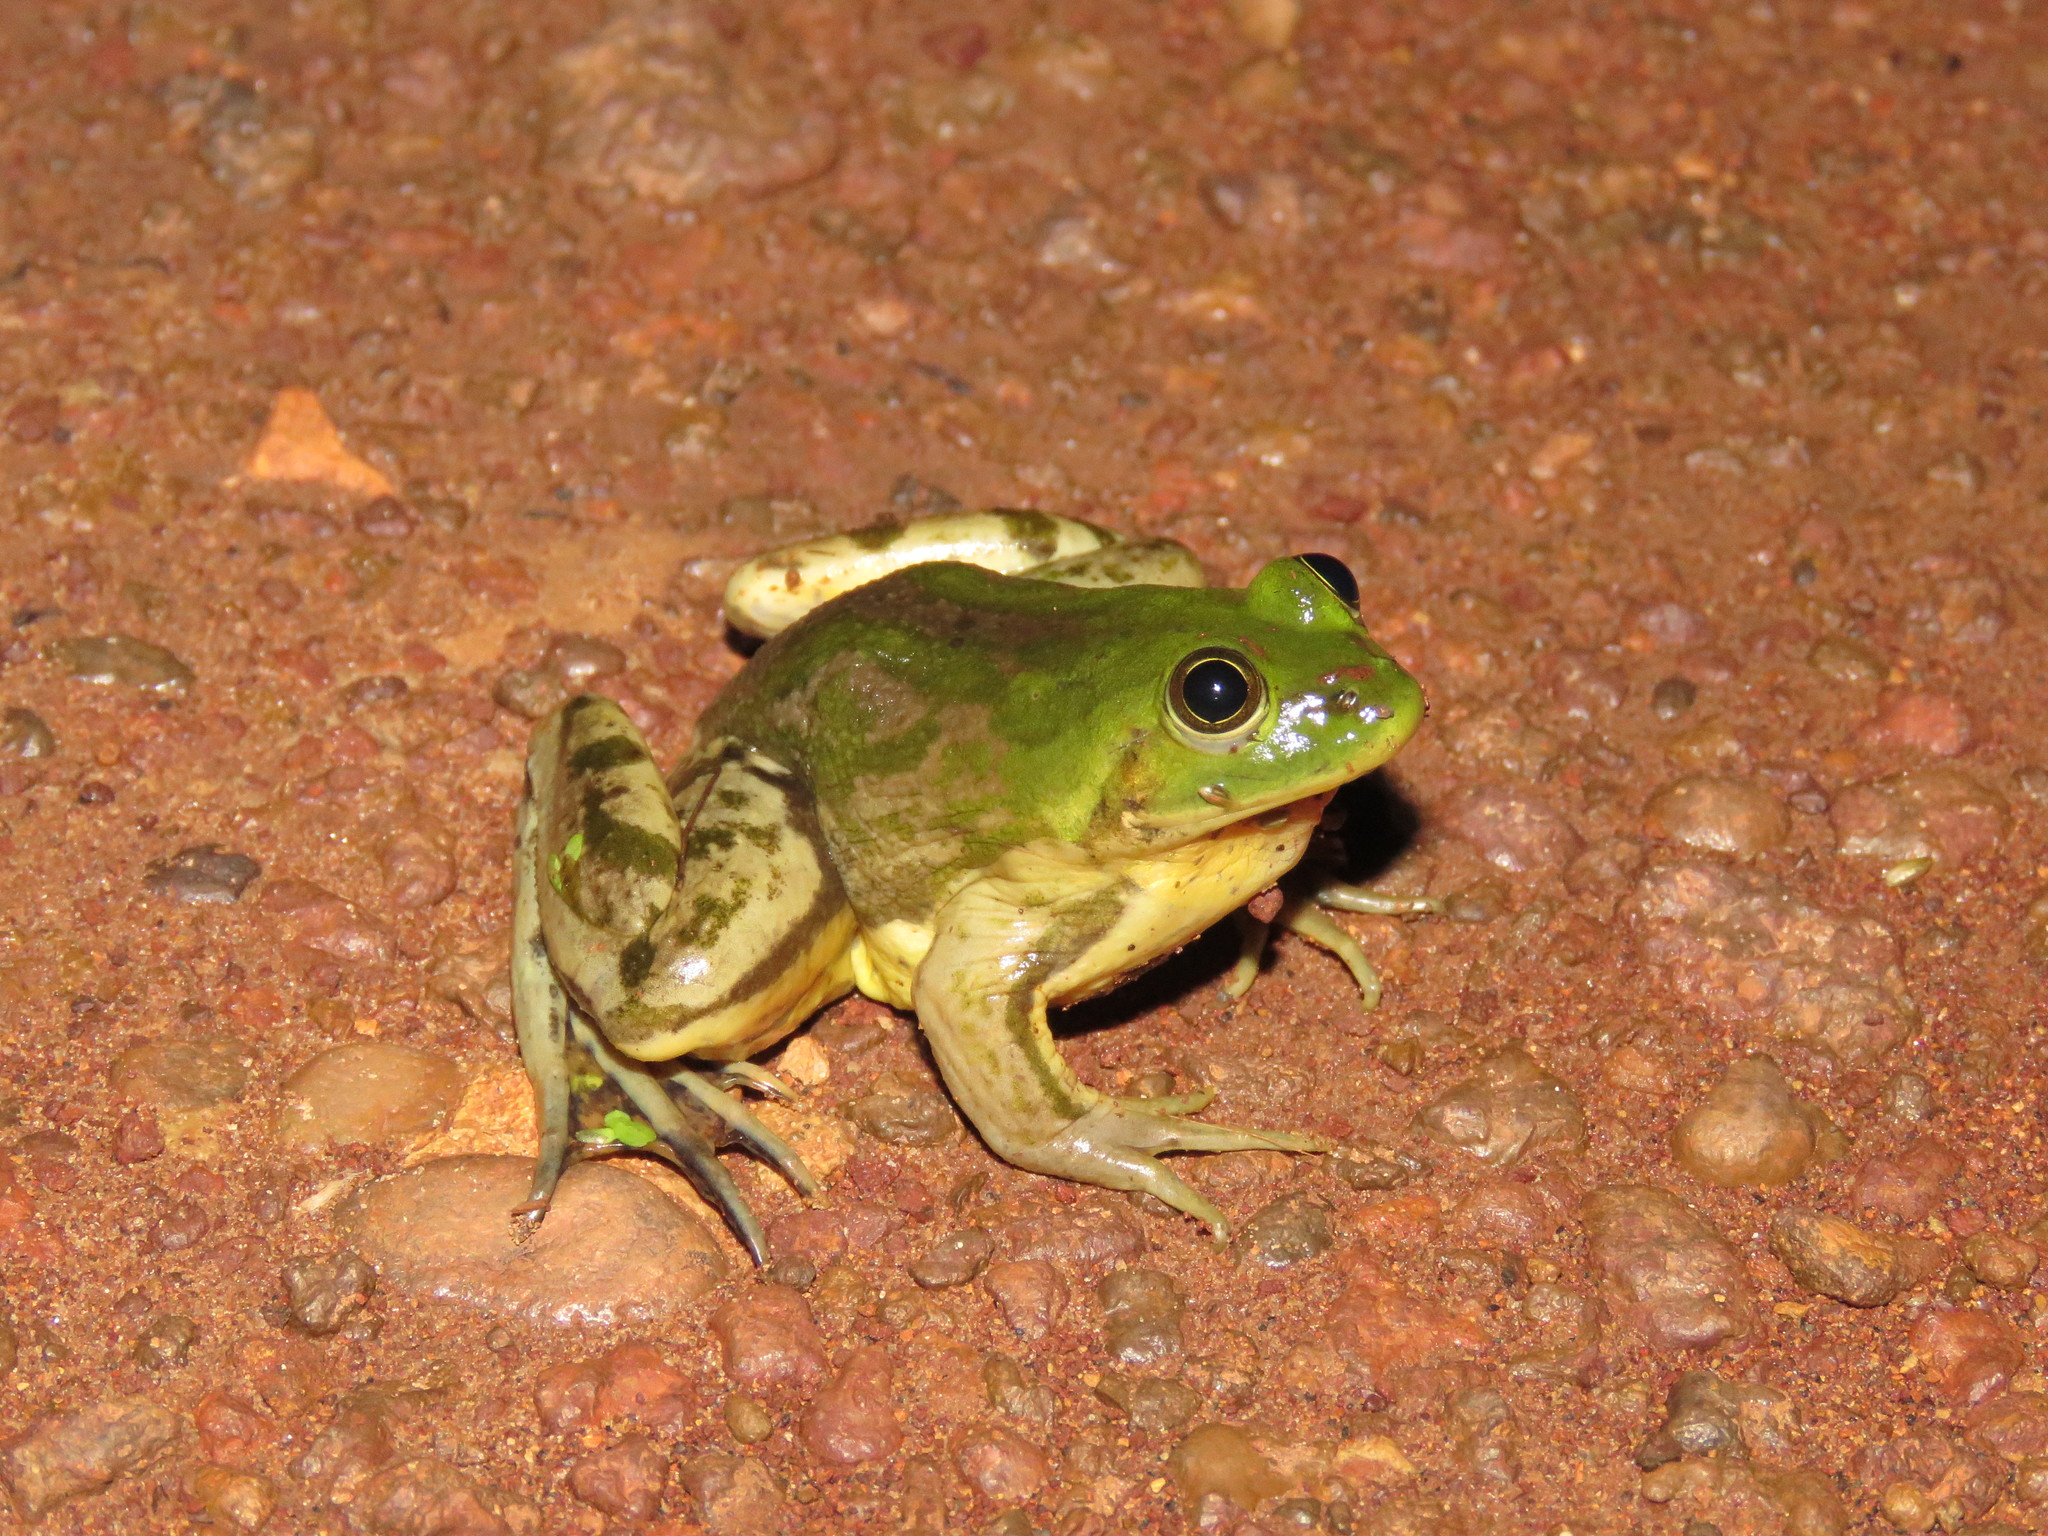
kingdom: Animalia
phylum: Chordata
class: Amphibia
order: Anura
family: Hylidae
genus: Pseudis
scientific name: Pseudis paradoxa
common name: Swimming frog
